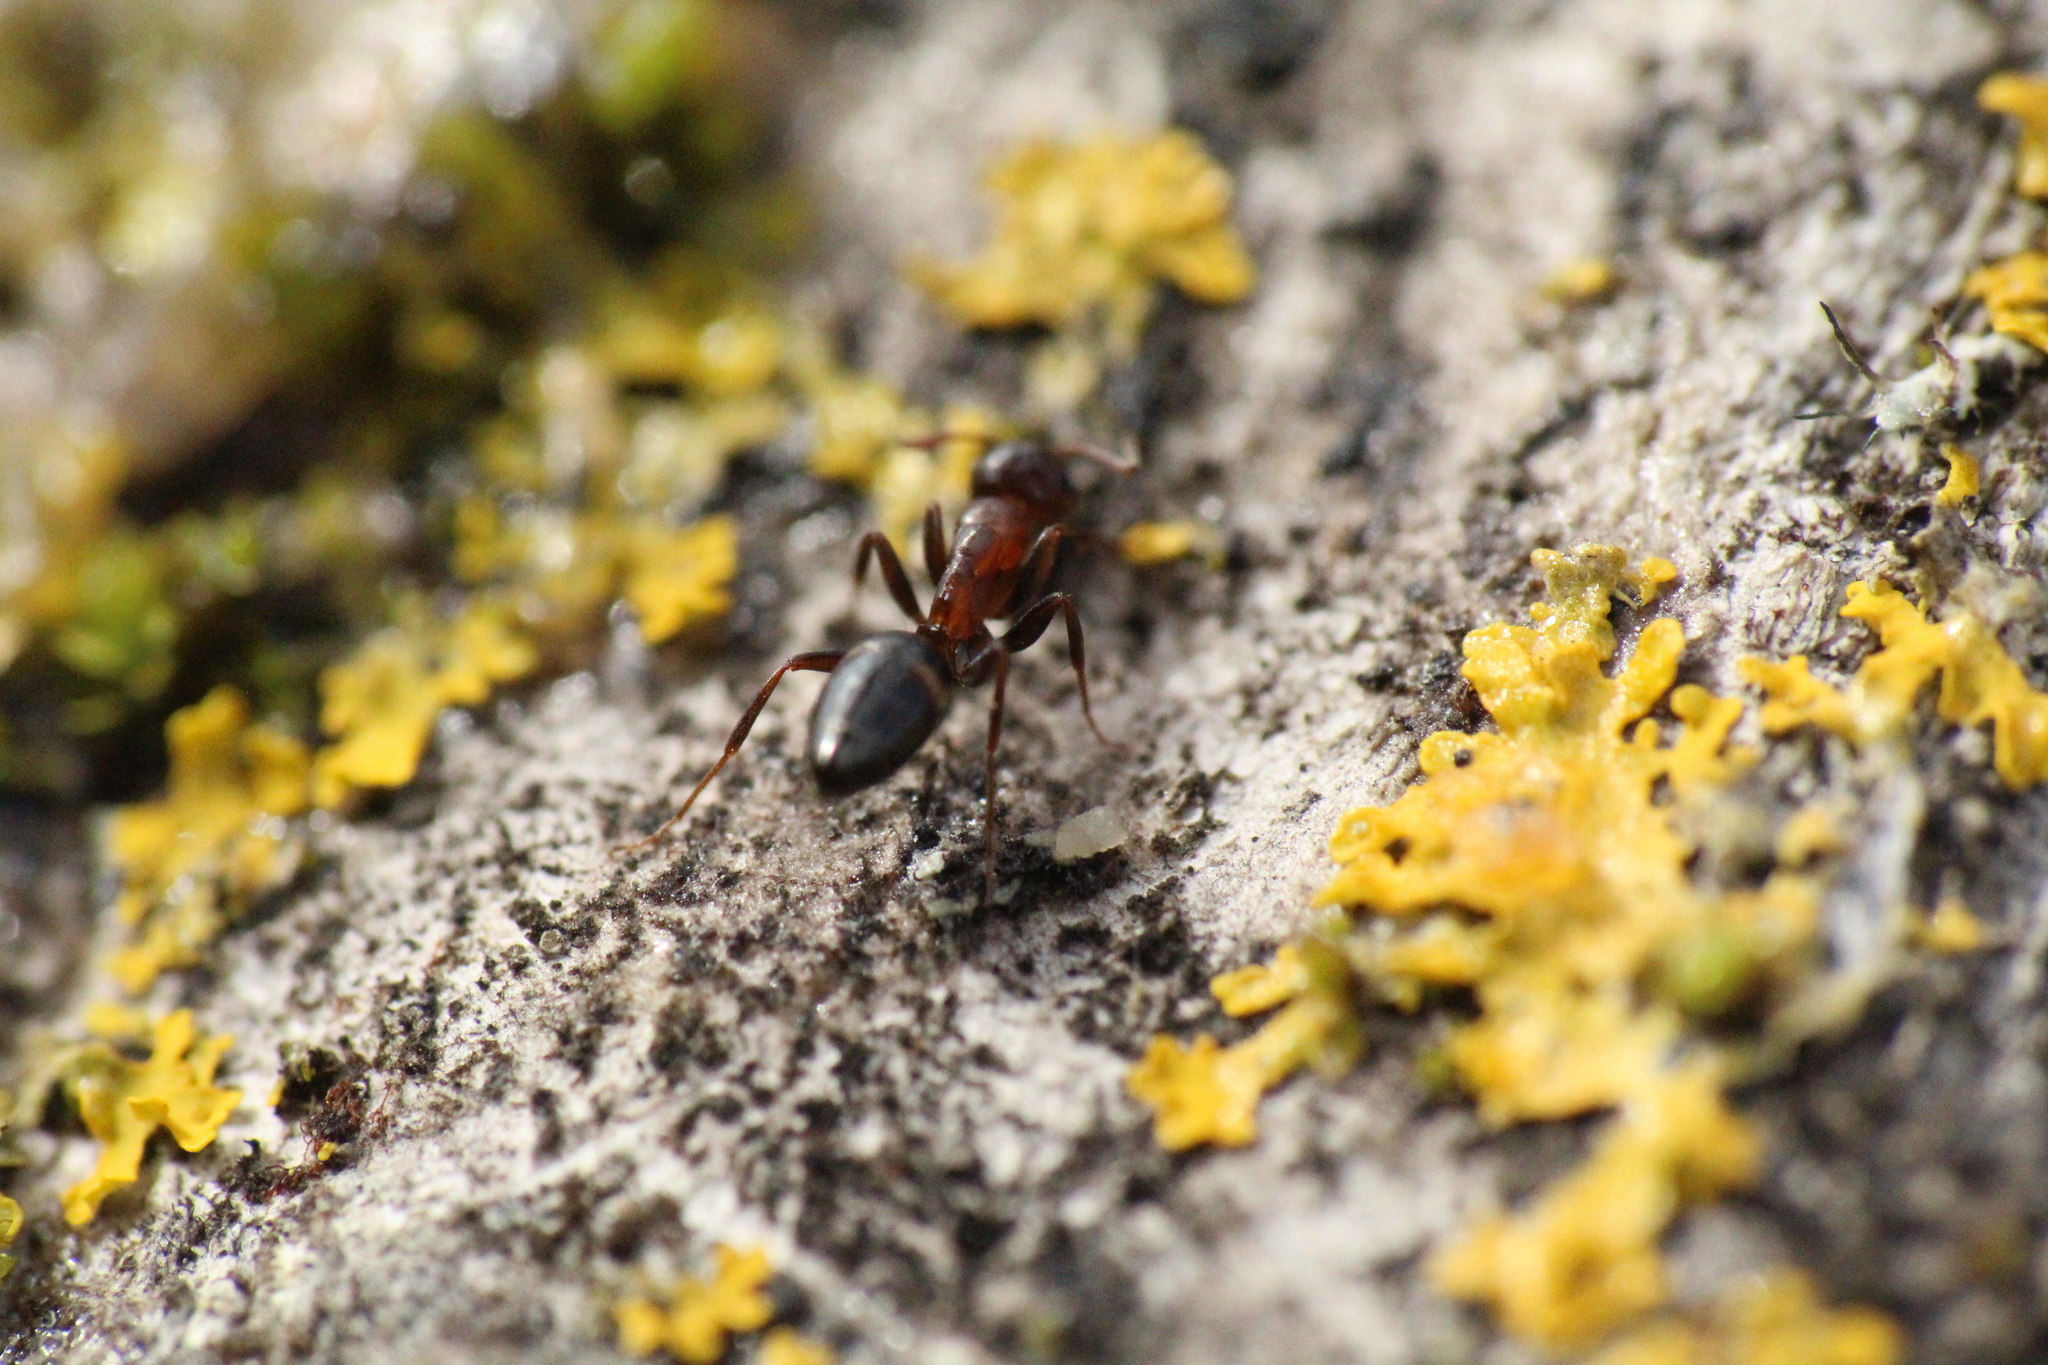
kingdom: Animalia
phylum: Arthropoda
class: Insecta
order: Hymenoptera
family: Formicidae
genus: Camponotus
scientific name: Camponotus truncatus
